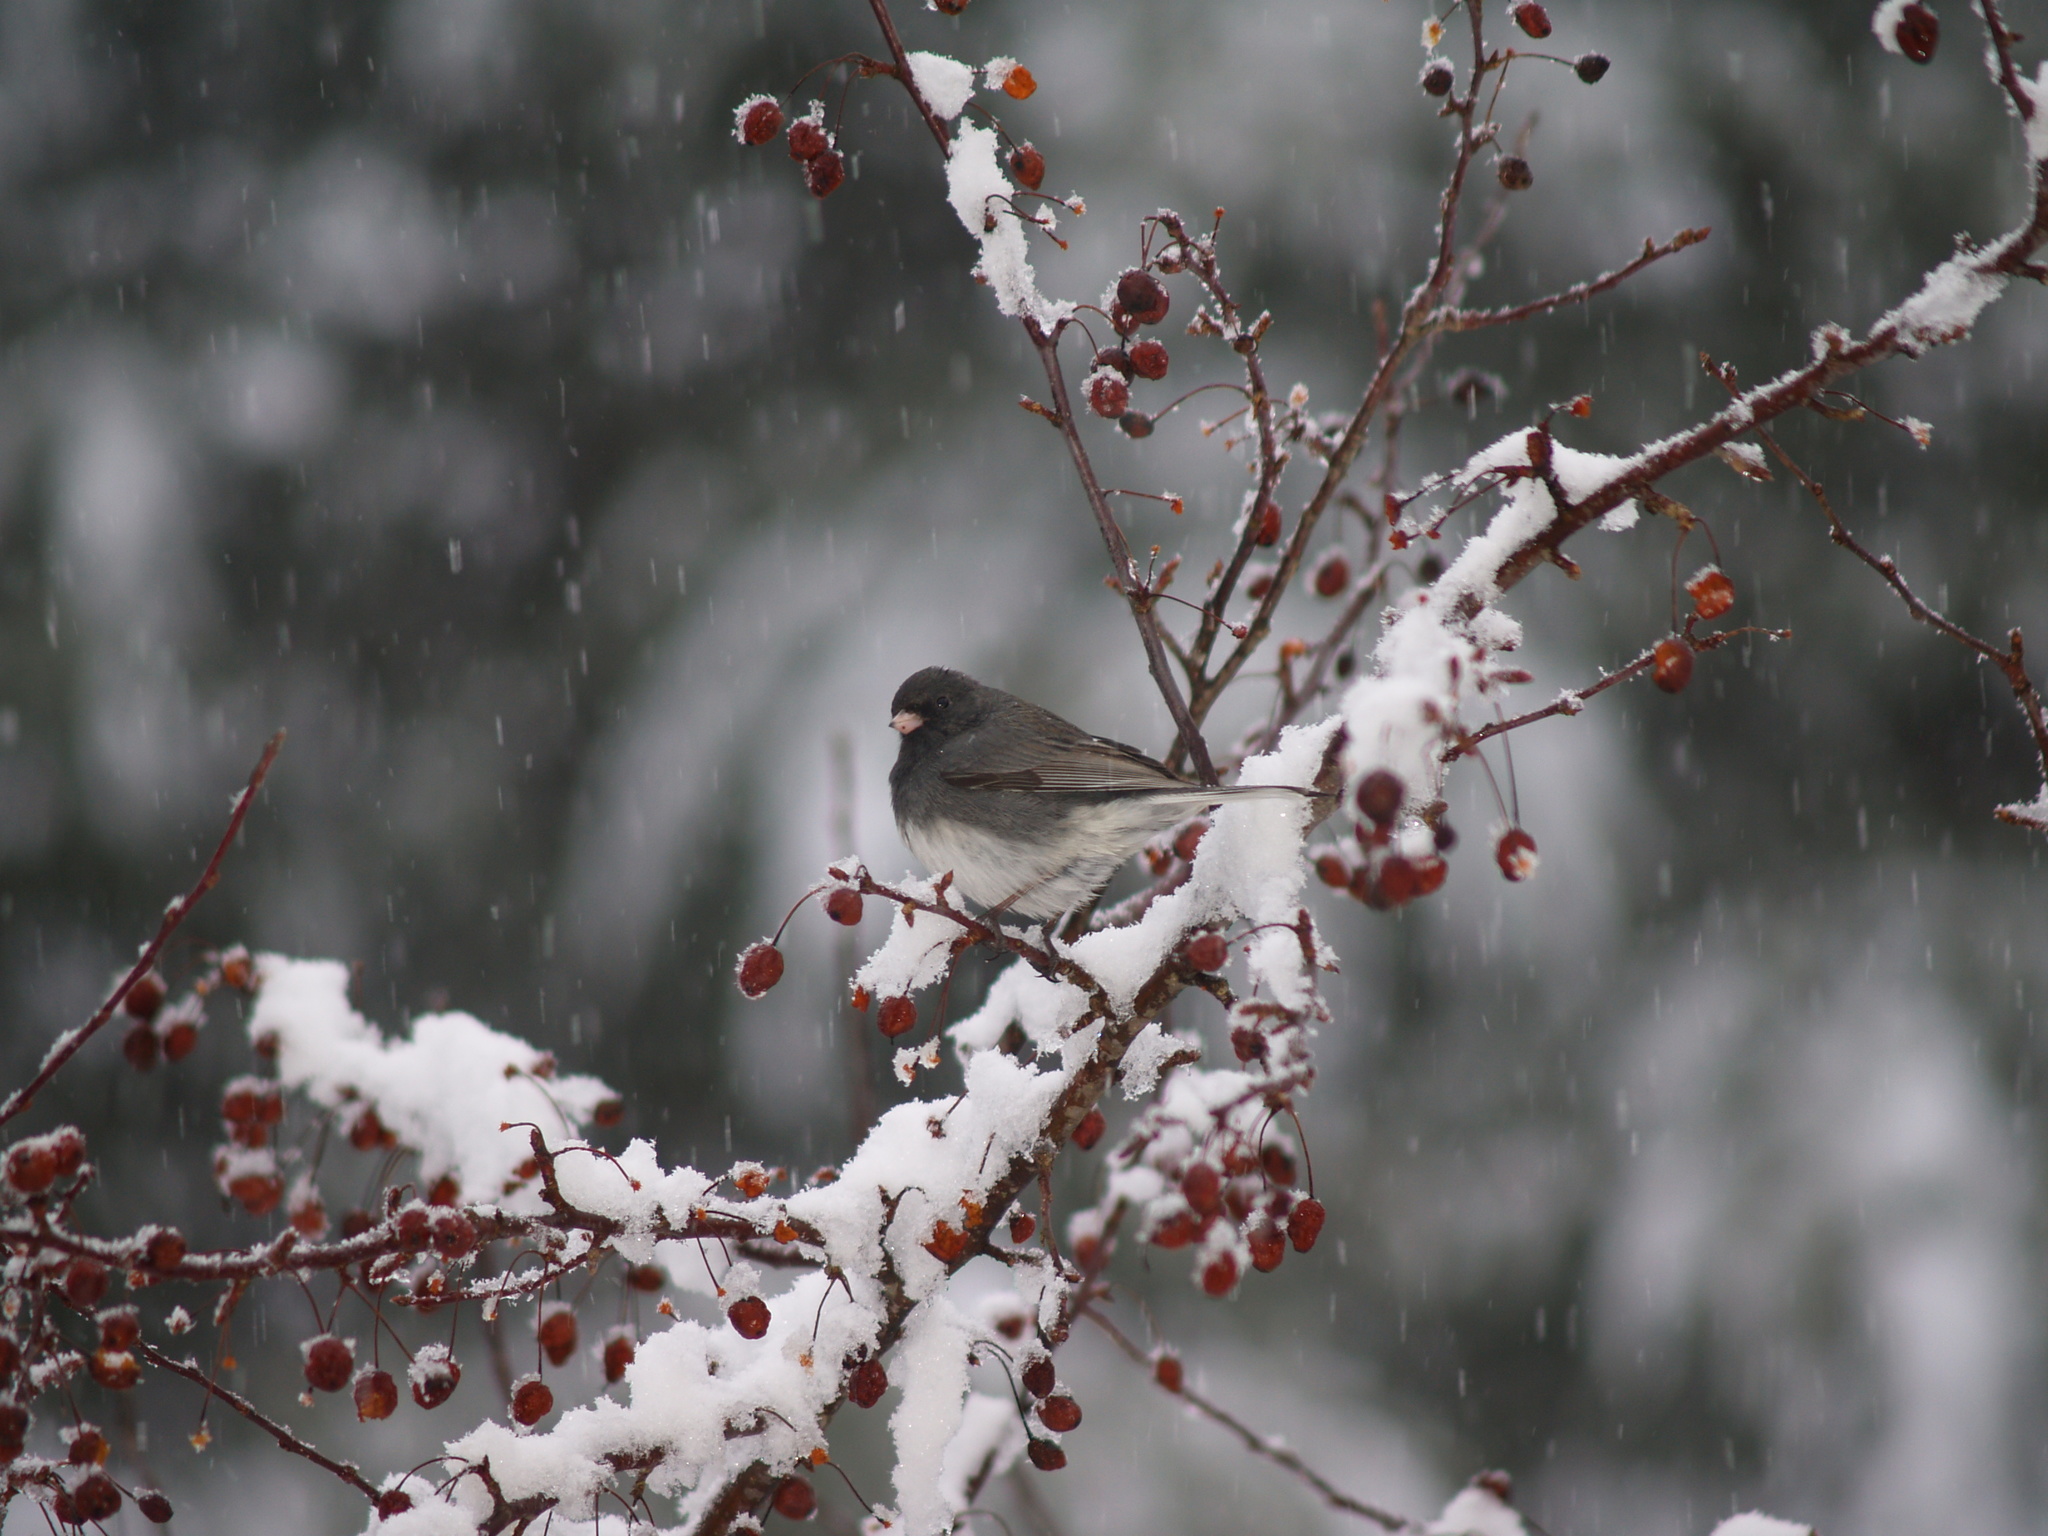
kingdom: Animalia
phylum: Chordata
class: Aves
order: Passeriformes
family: Passerellidae
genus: Junco
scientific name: Junco hyemalis
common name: Dark-eyed junco
